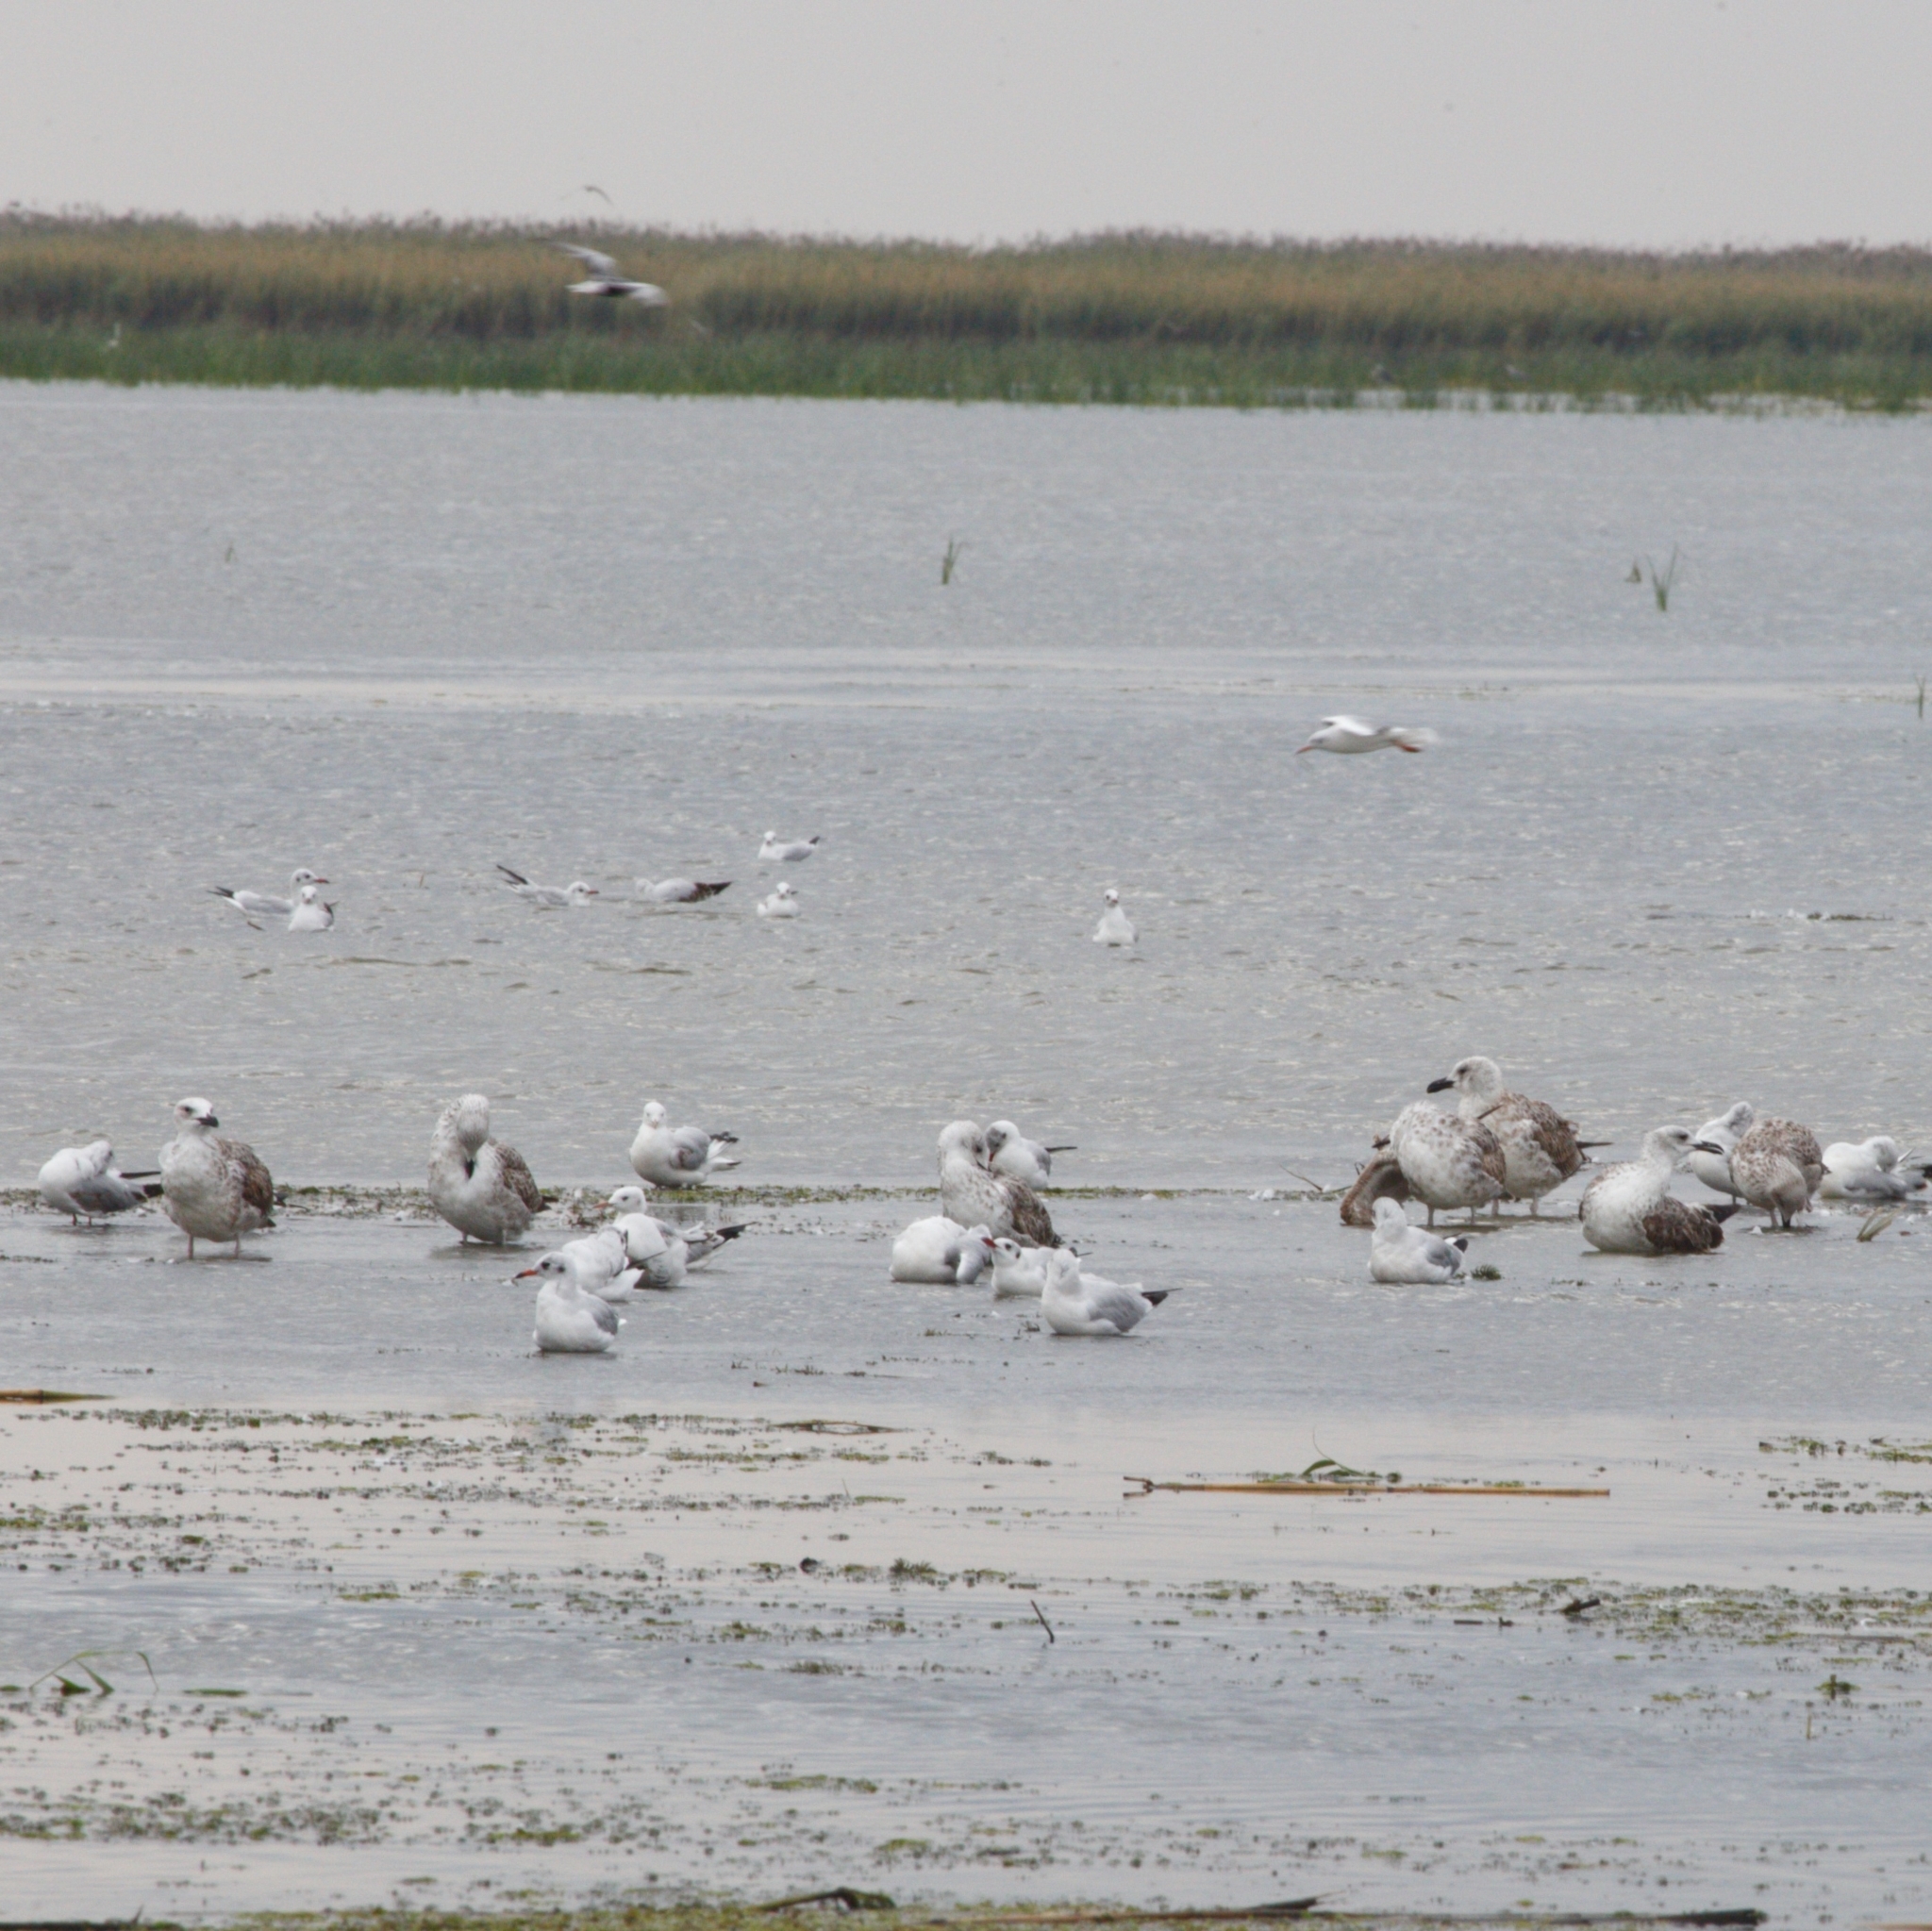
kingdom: Animalia
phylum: Chordata
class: Aves
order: Charadriiformes
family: Laridae
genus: Larus
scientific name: Larus cachinnans
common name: Caspian gull
